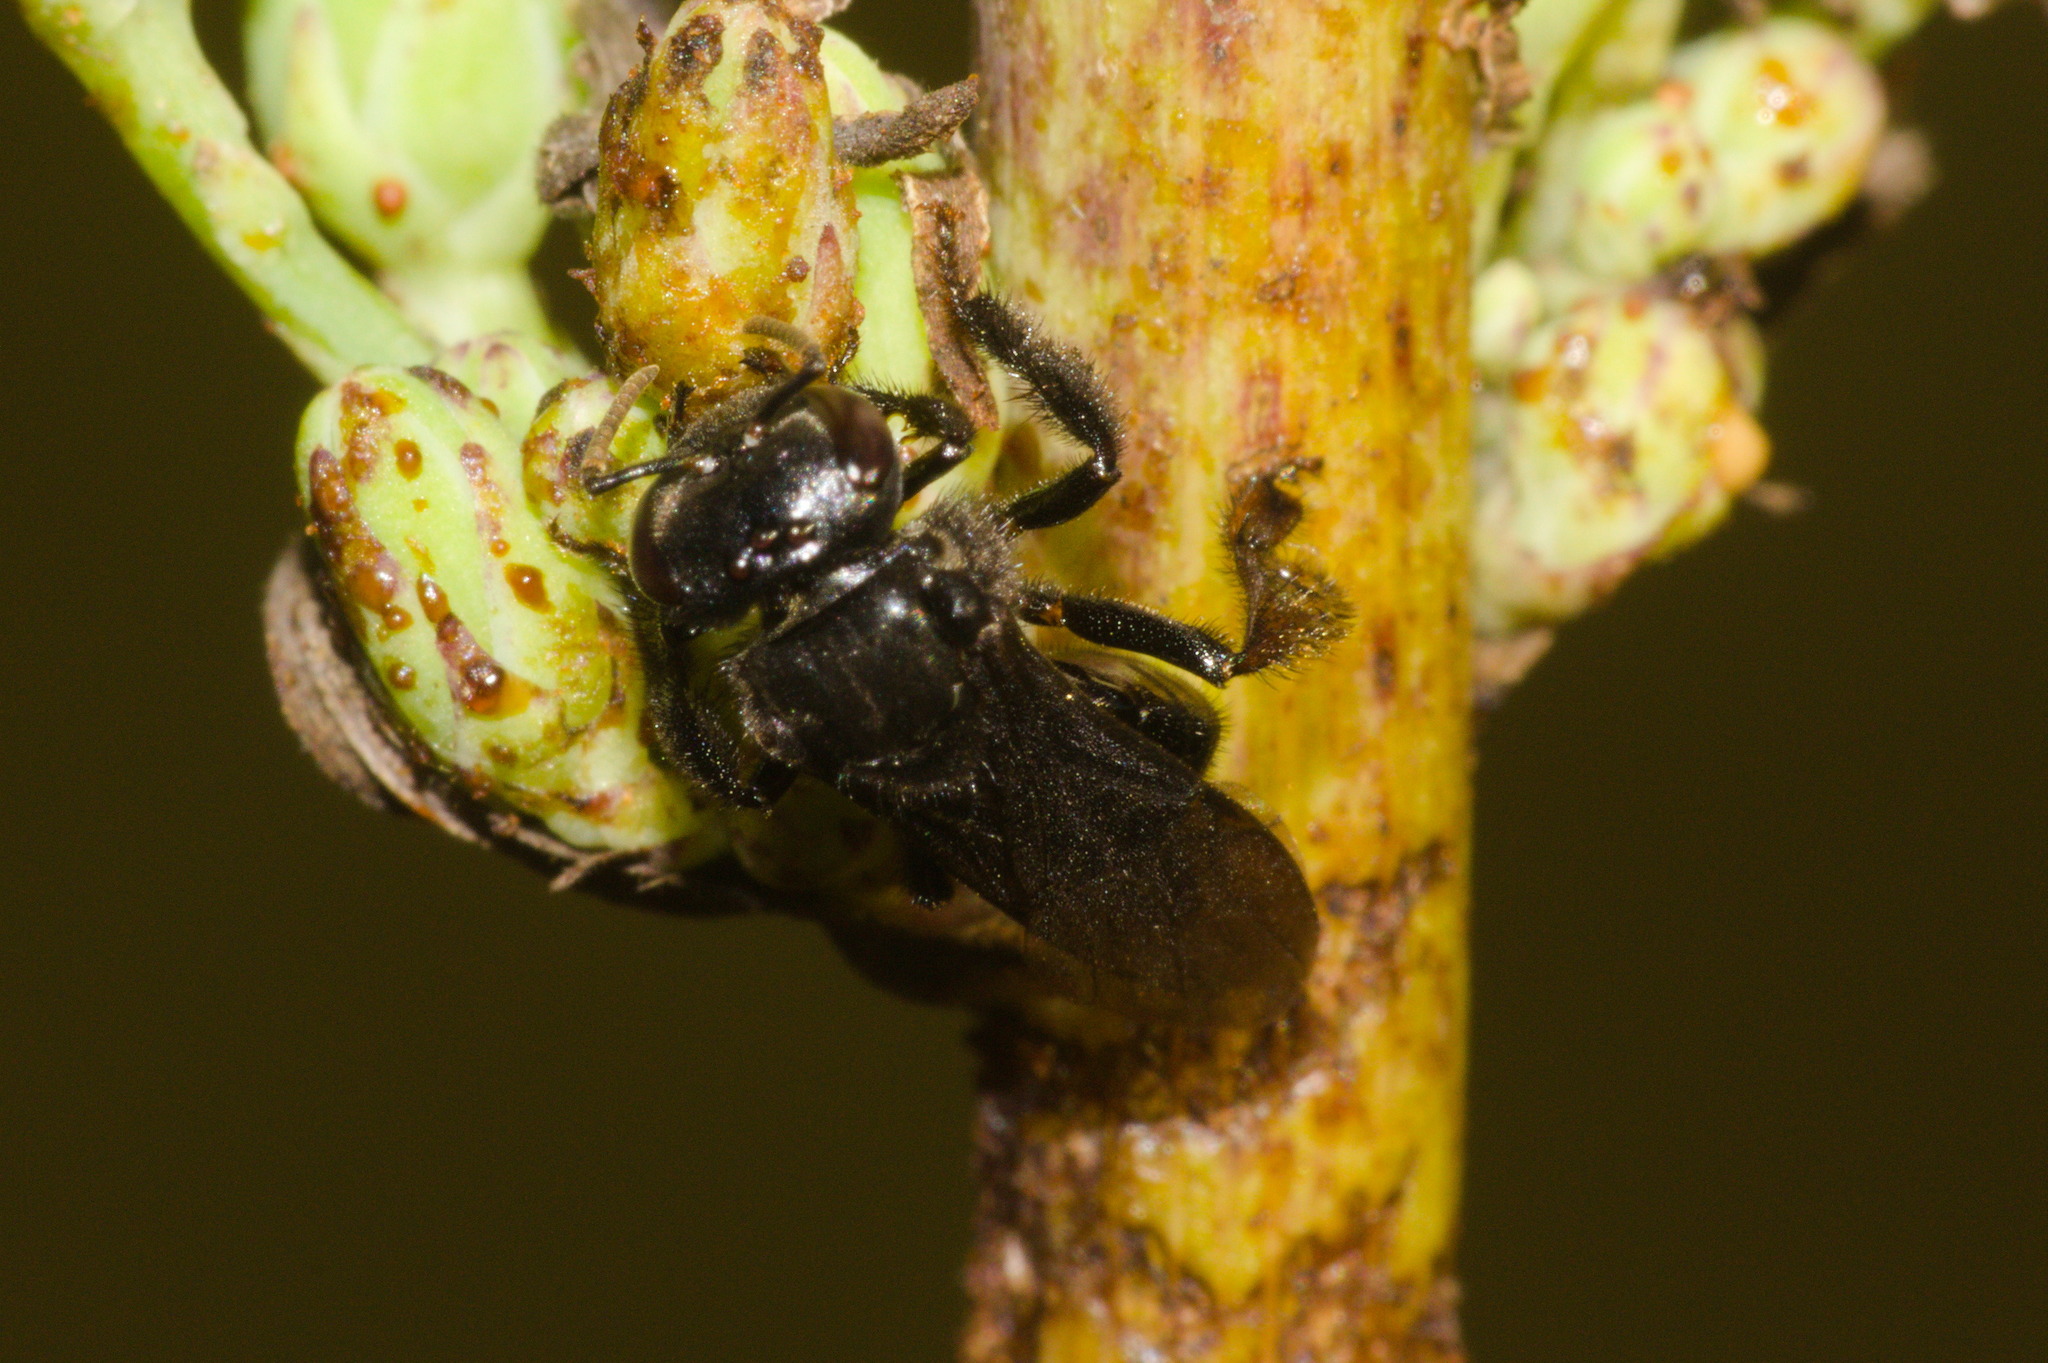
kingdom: Animalia
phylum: Arthropoda
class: Insecta
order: Hymenoptera
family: Apidae
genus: Trigona
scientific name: Trigona spinipes
